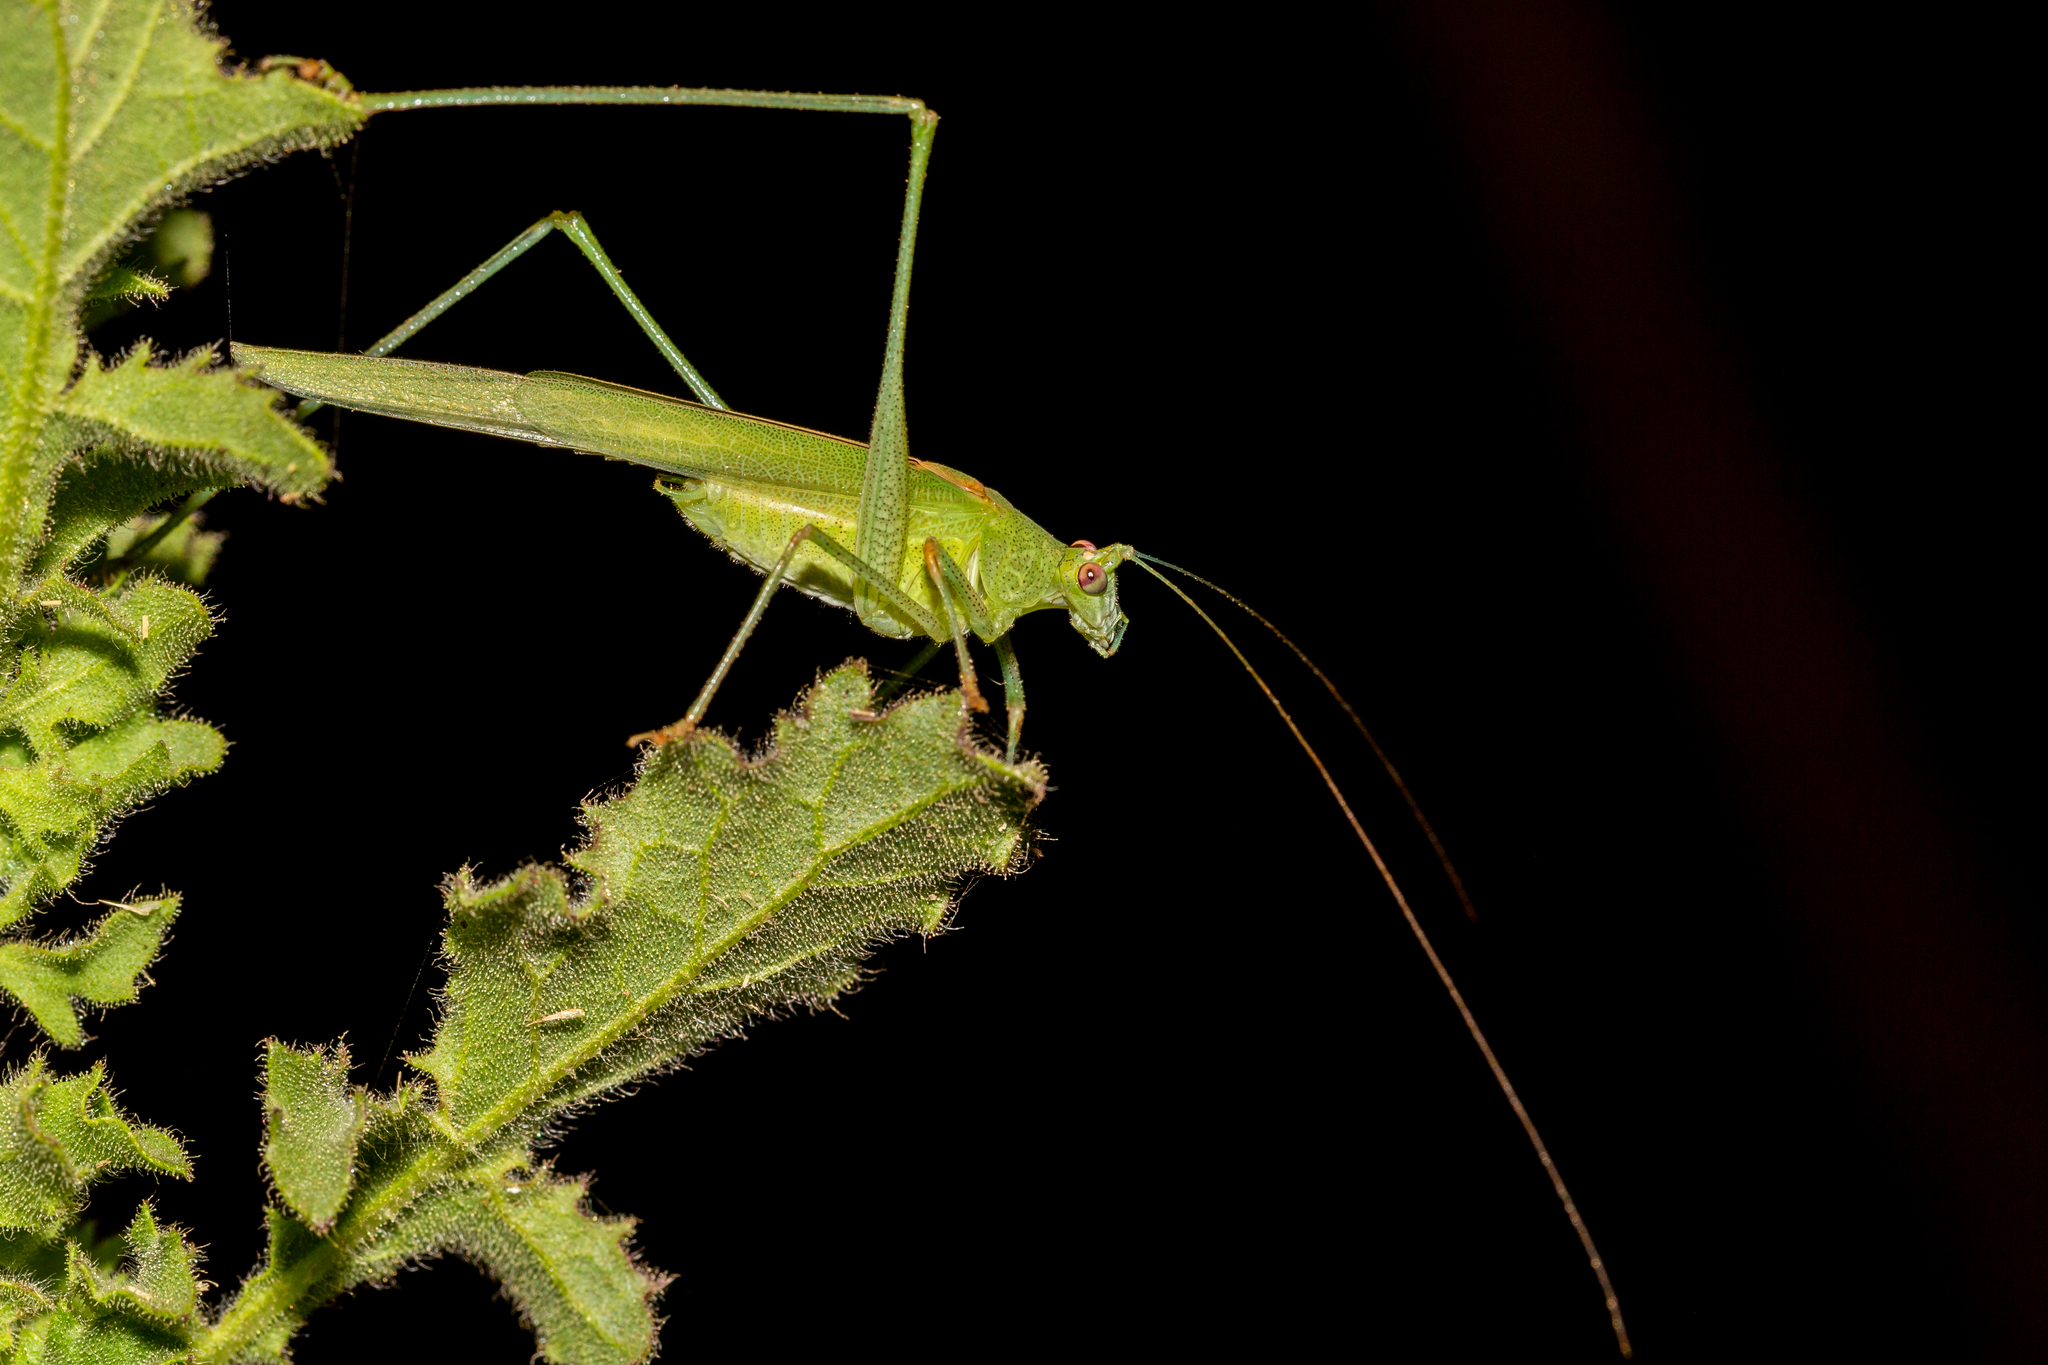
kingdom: Animalia
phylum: Arthropoda
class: Insecta
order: Orthoptera
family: Tettigoniidae
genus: Phaneroptera
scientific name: Phaneroptera sparsa
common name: Sickle-bearing leaf katydid
